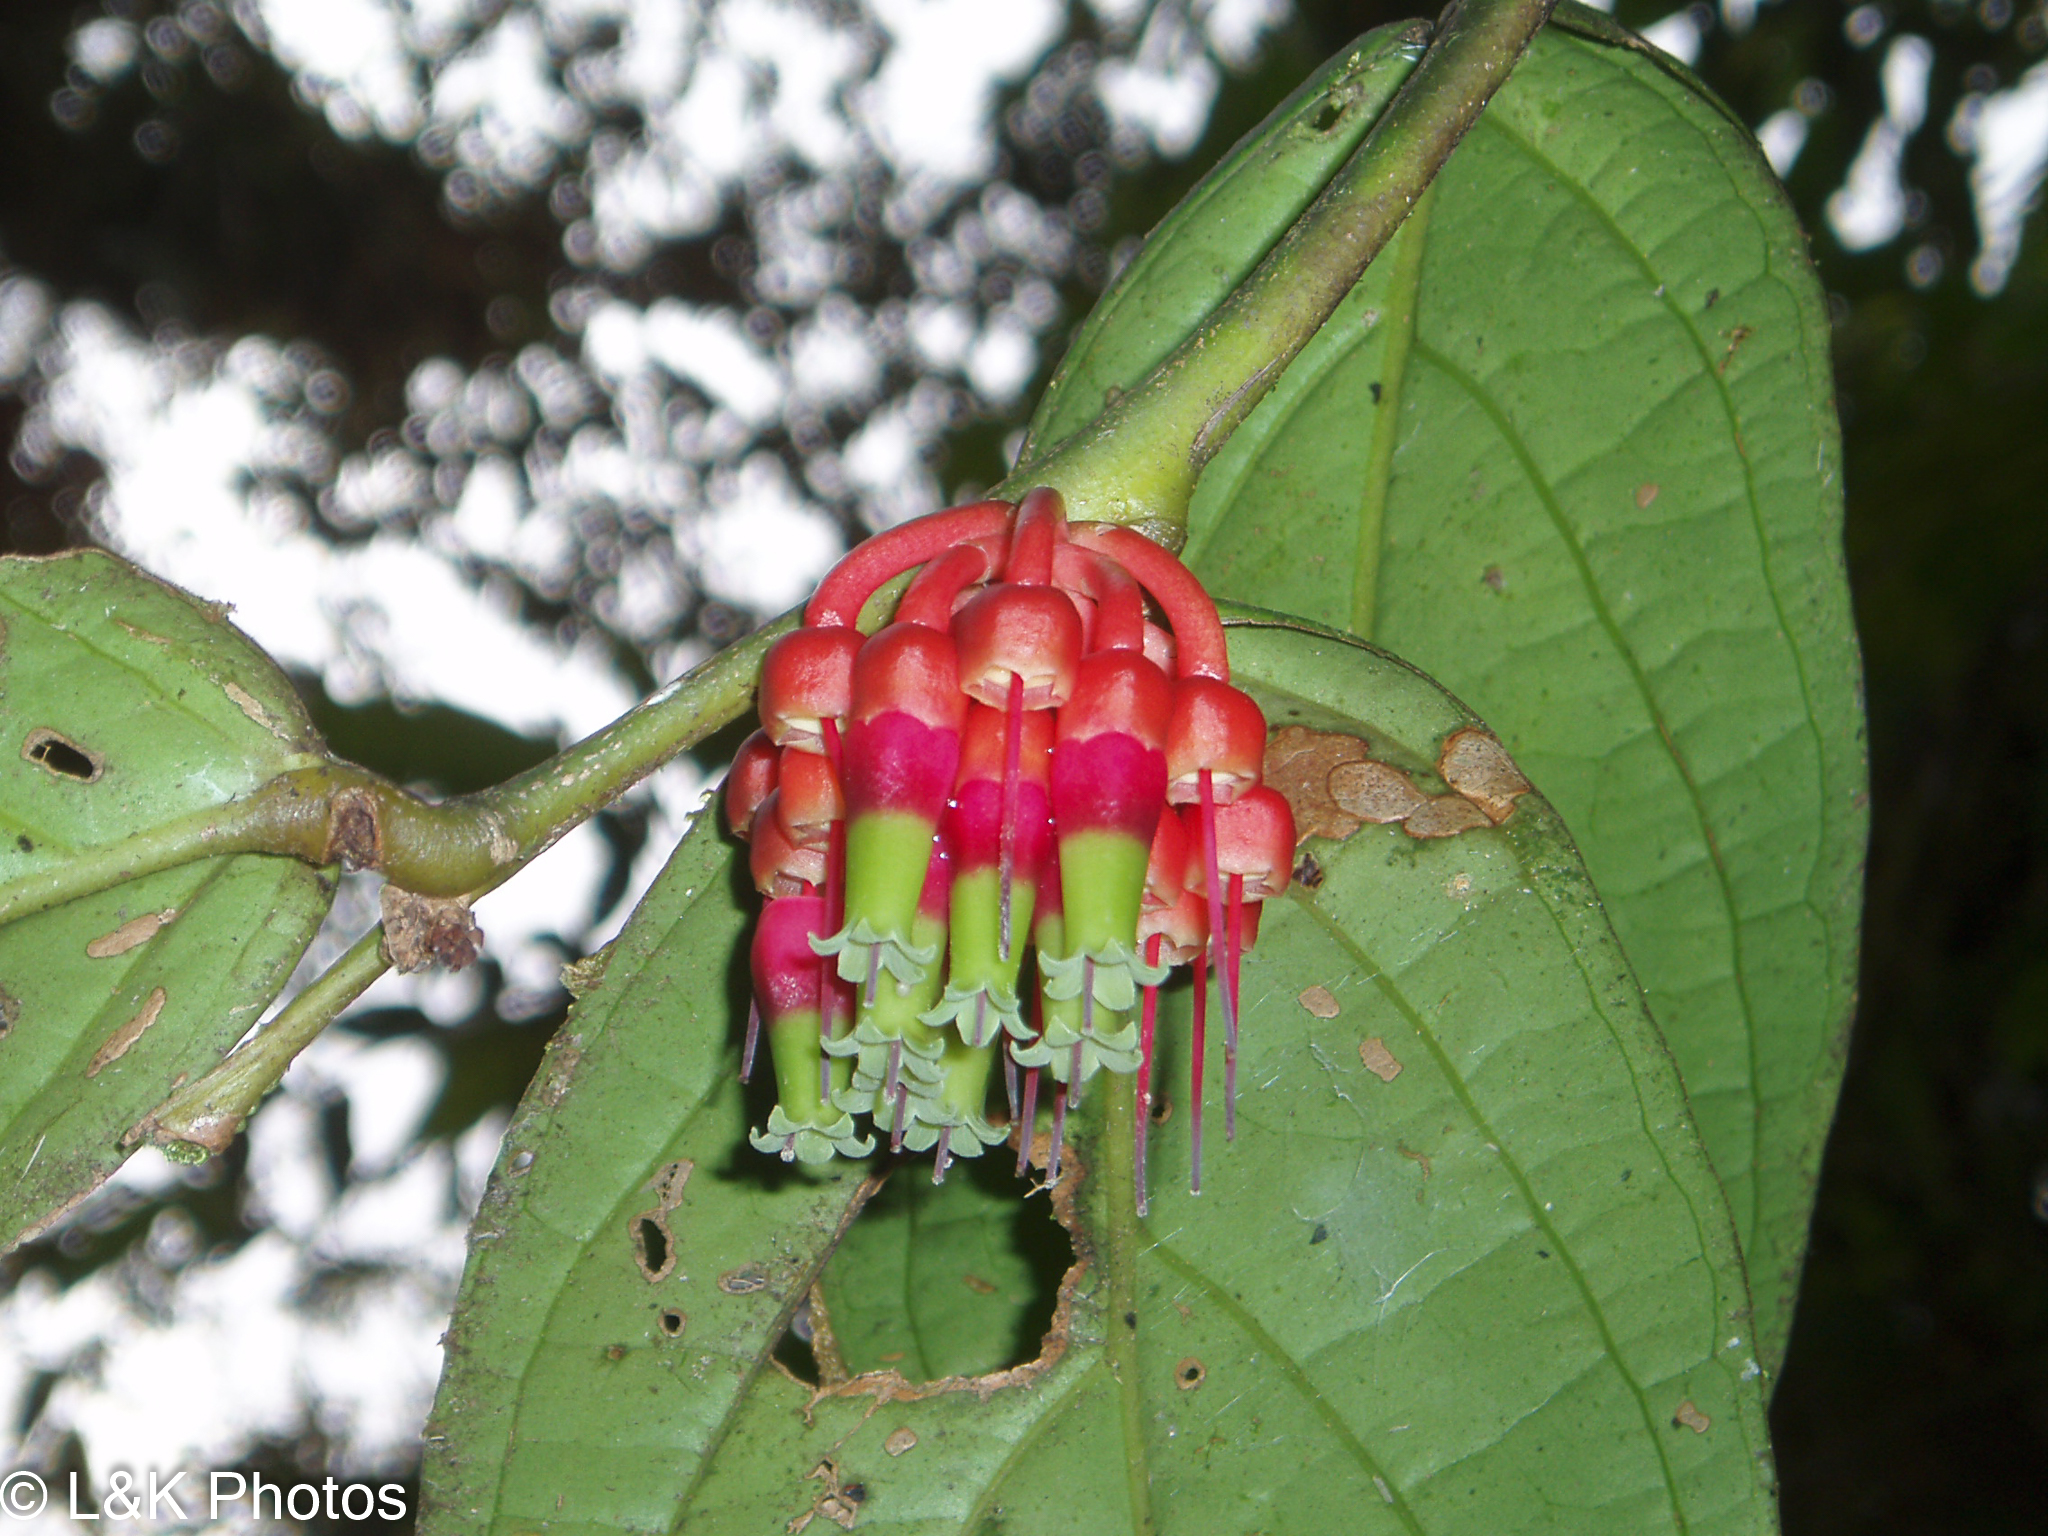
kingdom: Plantae
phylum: Tracheophyta
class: Magnoliopsida
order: Ericales
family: Ericaceae
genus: Psammisia
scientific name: Psammisia sodiroi
